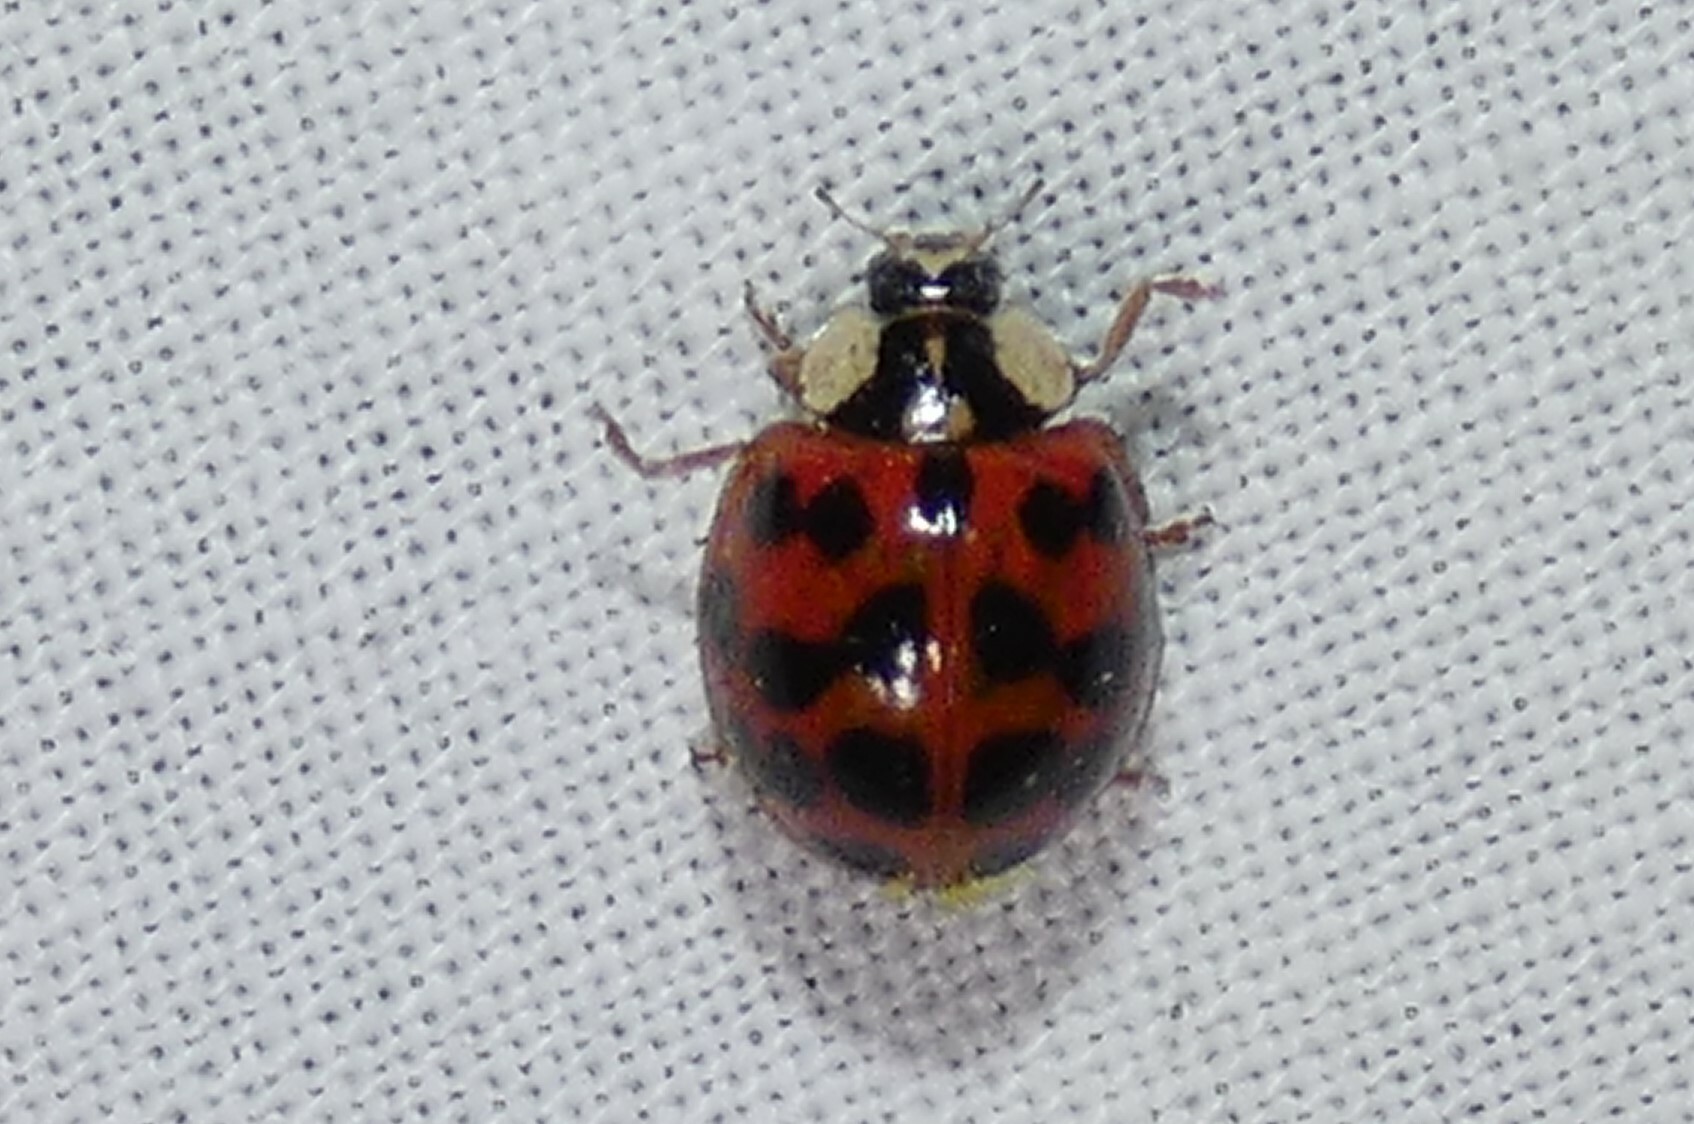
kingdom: Animalia
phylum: Arthropoda
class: Insecta
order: Coleoptera
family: Coccinellidae
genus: Harmonia
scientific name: Harmonia axyridis
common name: Harlequin ladybird
